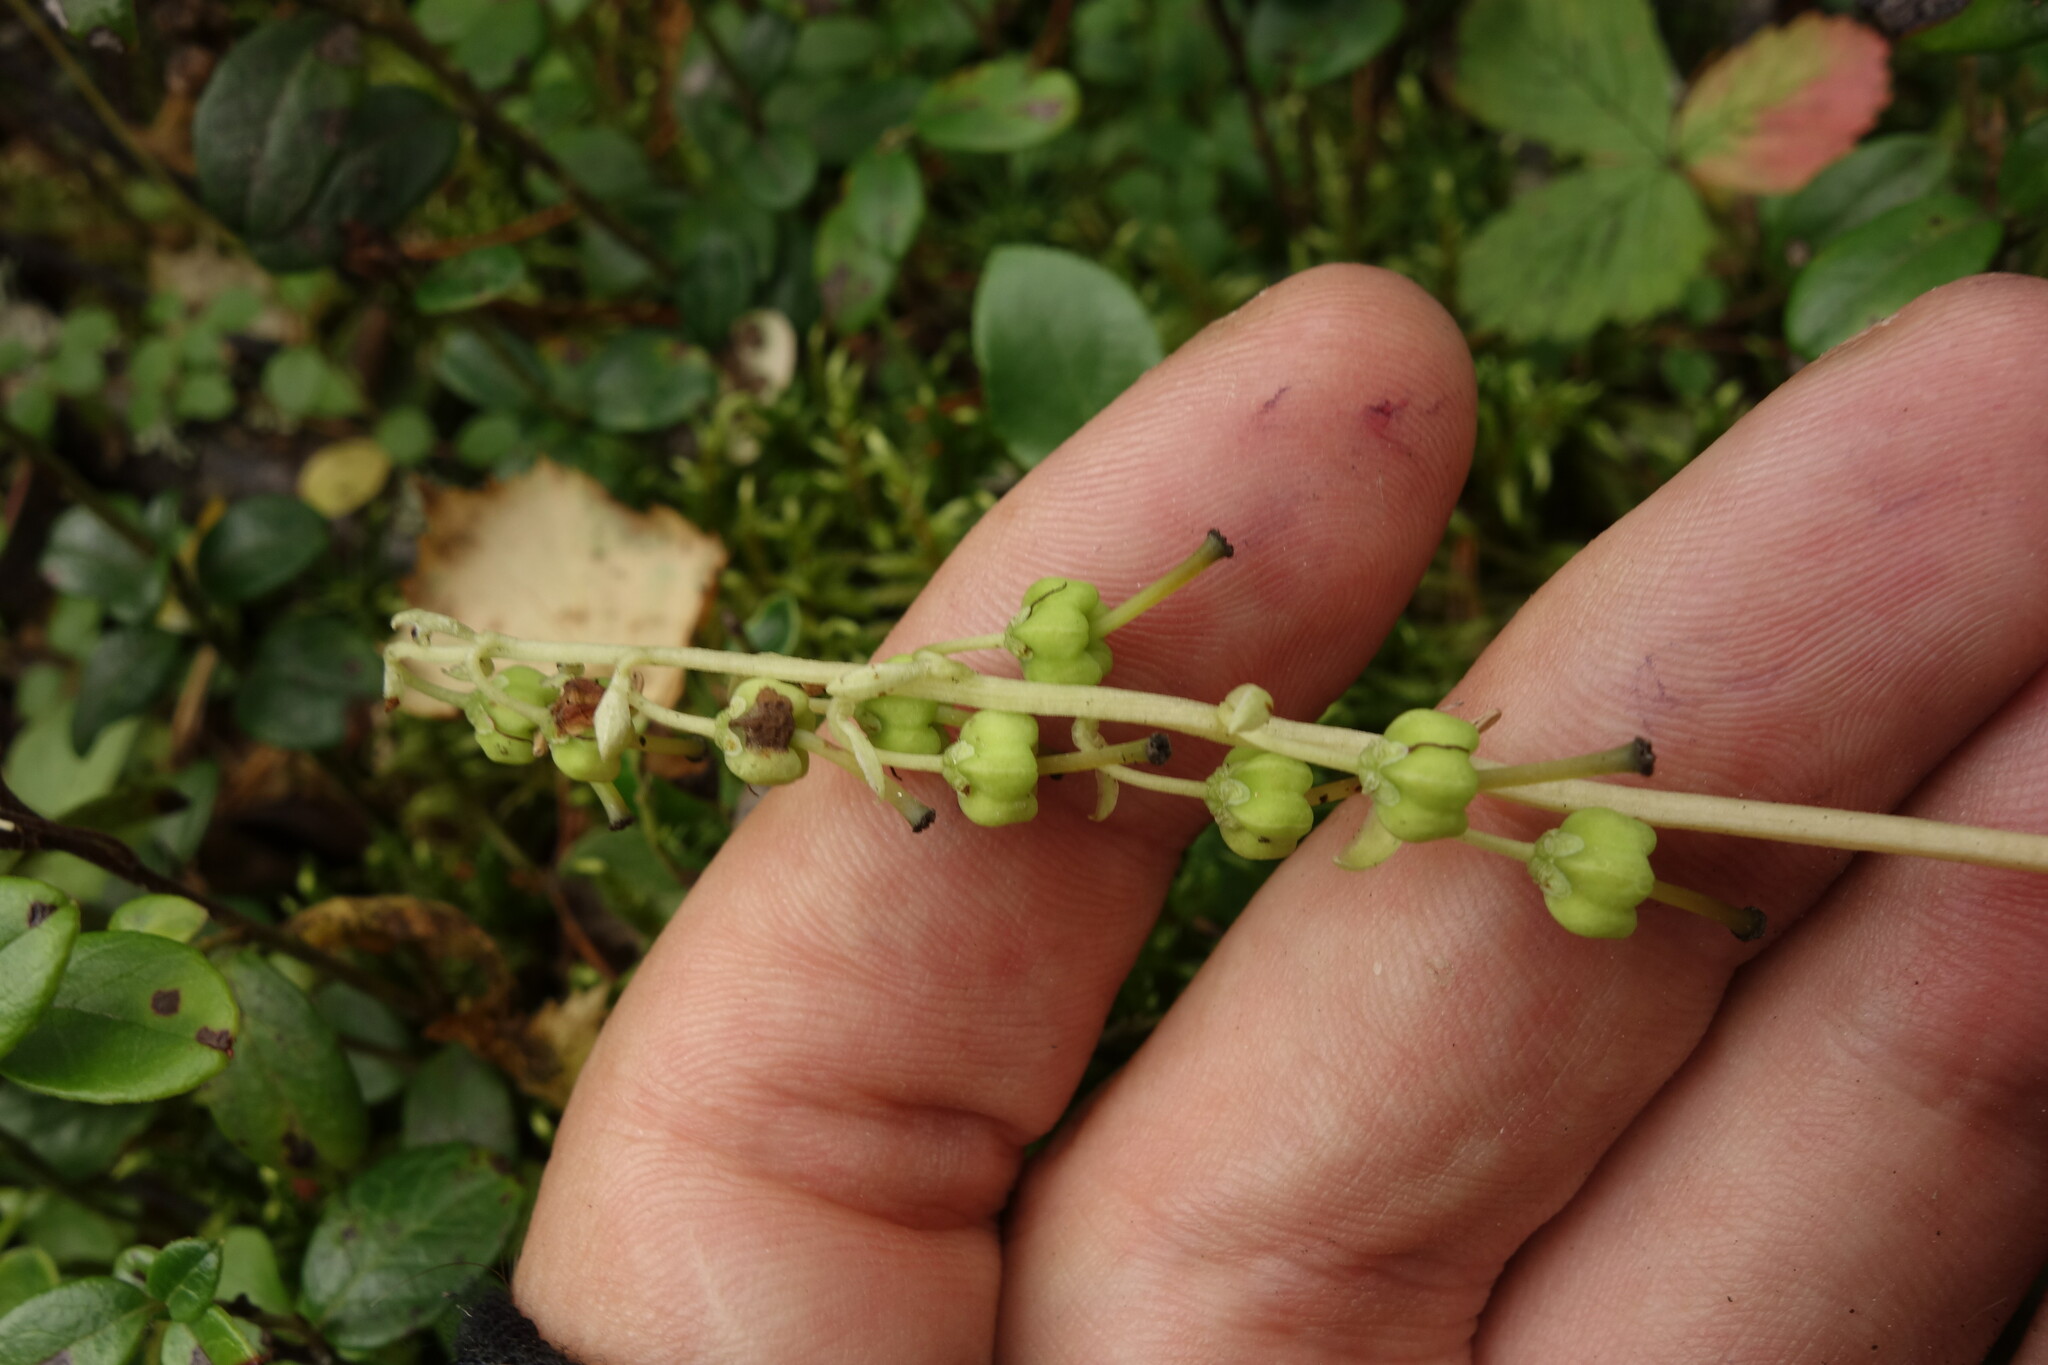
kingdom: Plantae
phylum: Tracheophyta
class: Magnoliopsida
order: Ericales
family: Ericaceae
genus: Orthilia
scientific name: Orthilia secunda
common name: One-sided orthilia
